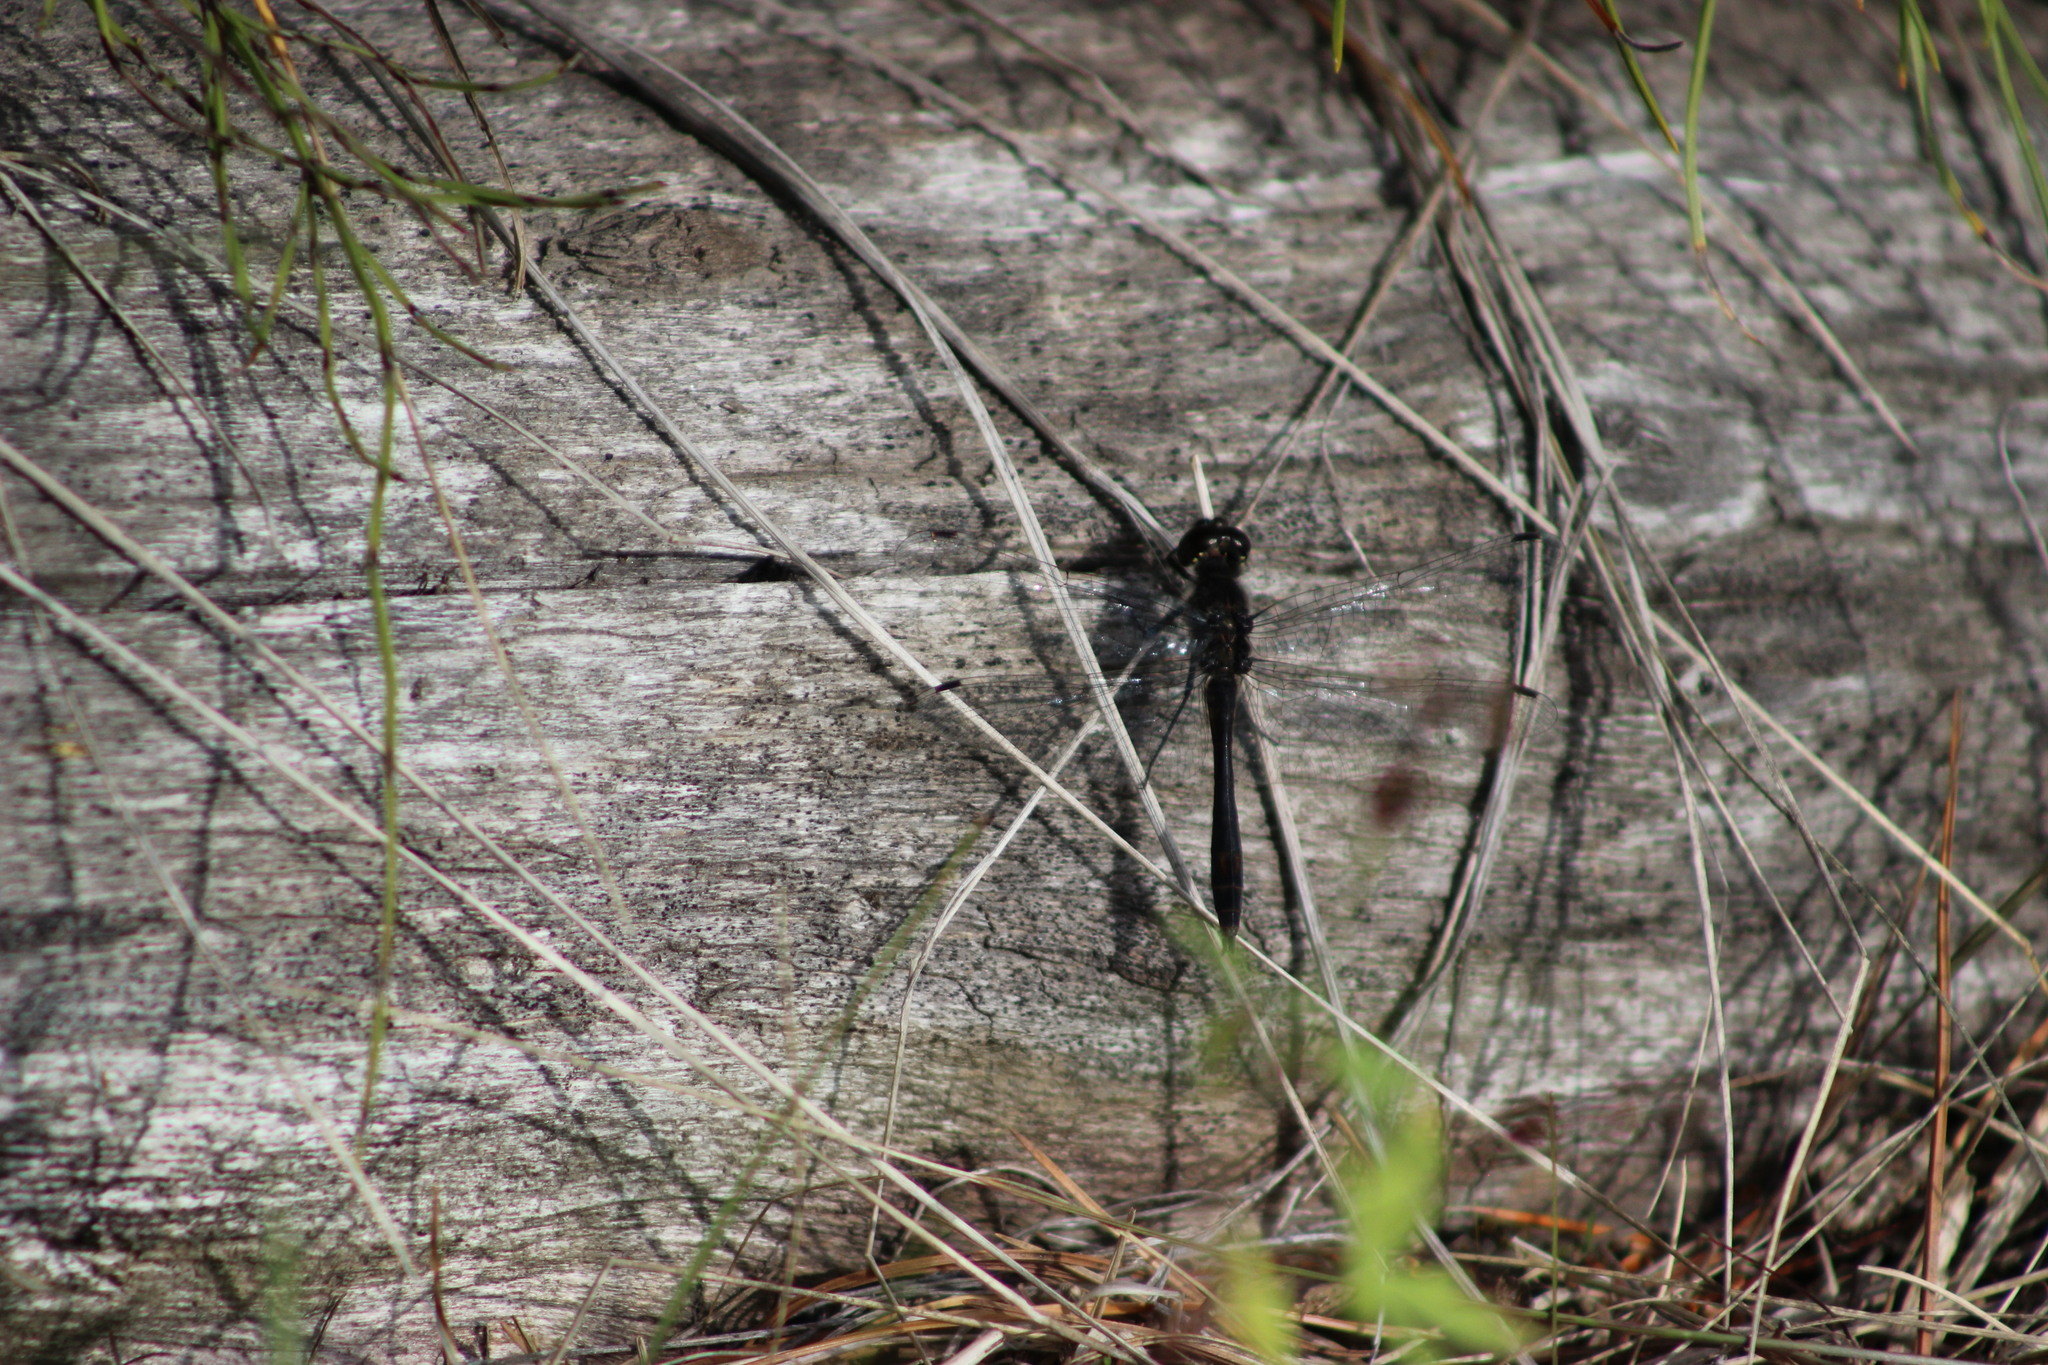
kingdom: Animalia
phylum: Arthropoda
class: Insecta
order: Odonata
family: Libellulidae
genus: Sympetrum
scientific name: Sympetrum danae
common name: Black darter
